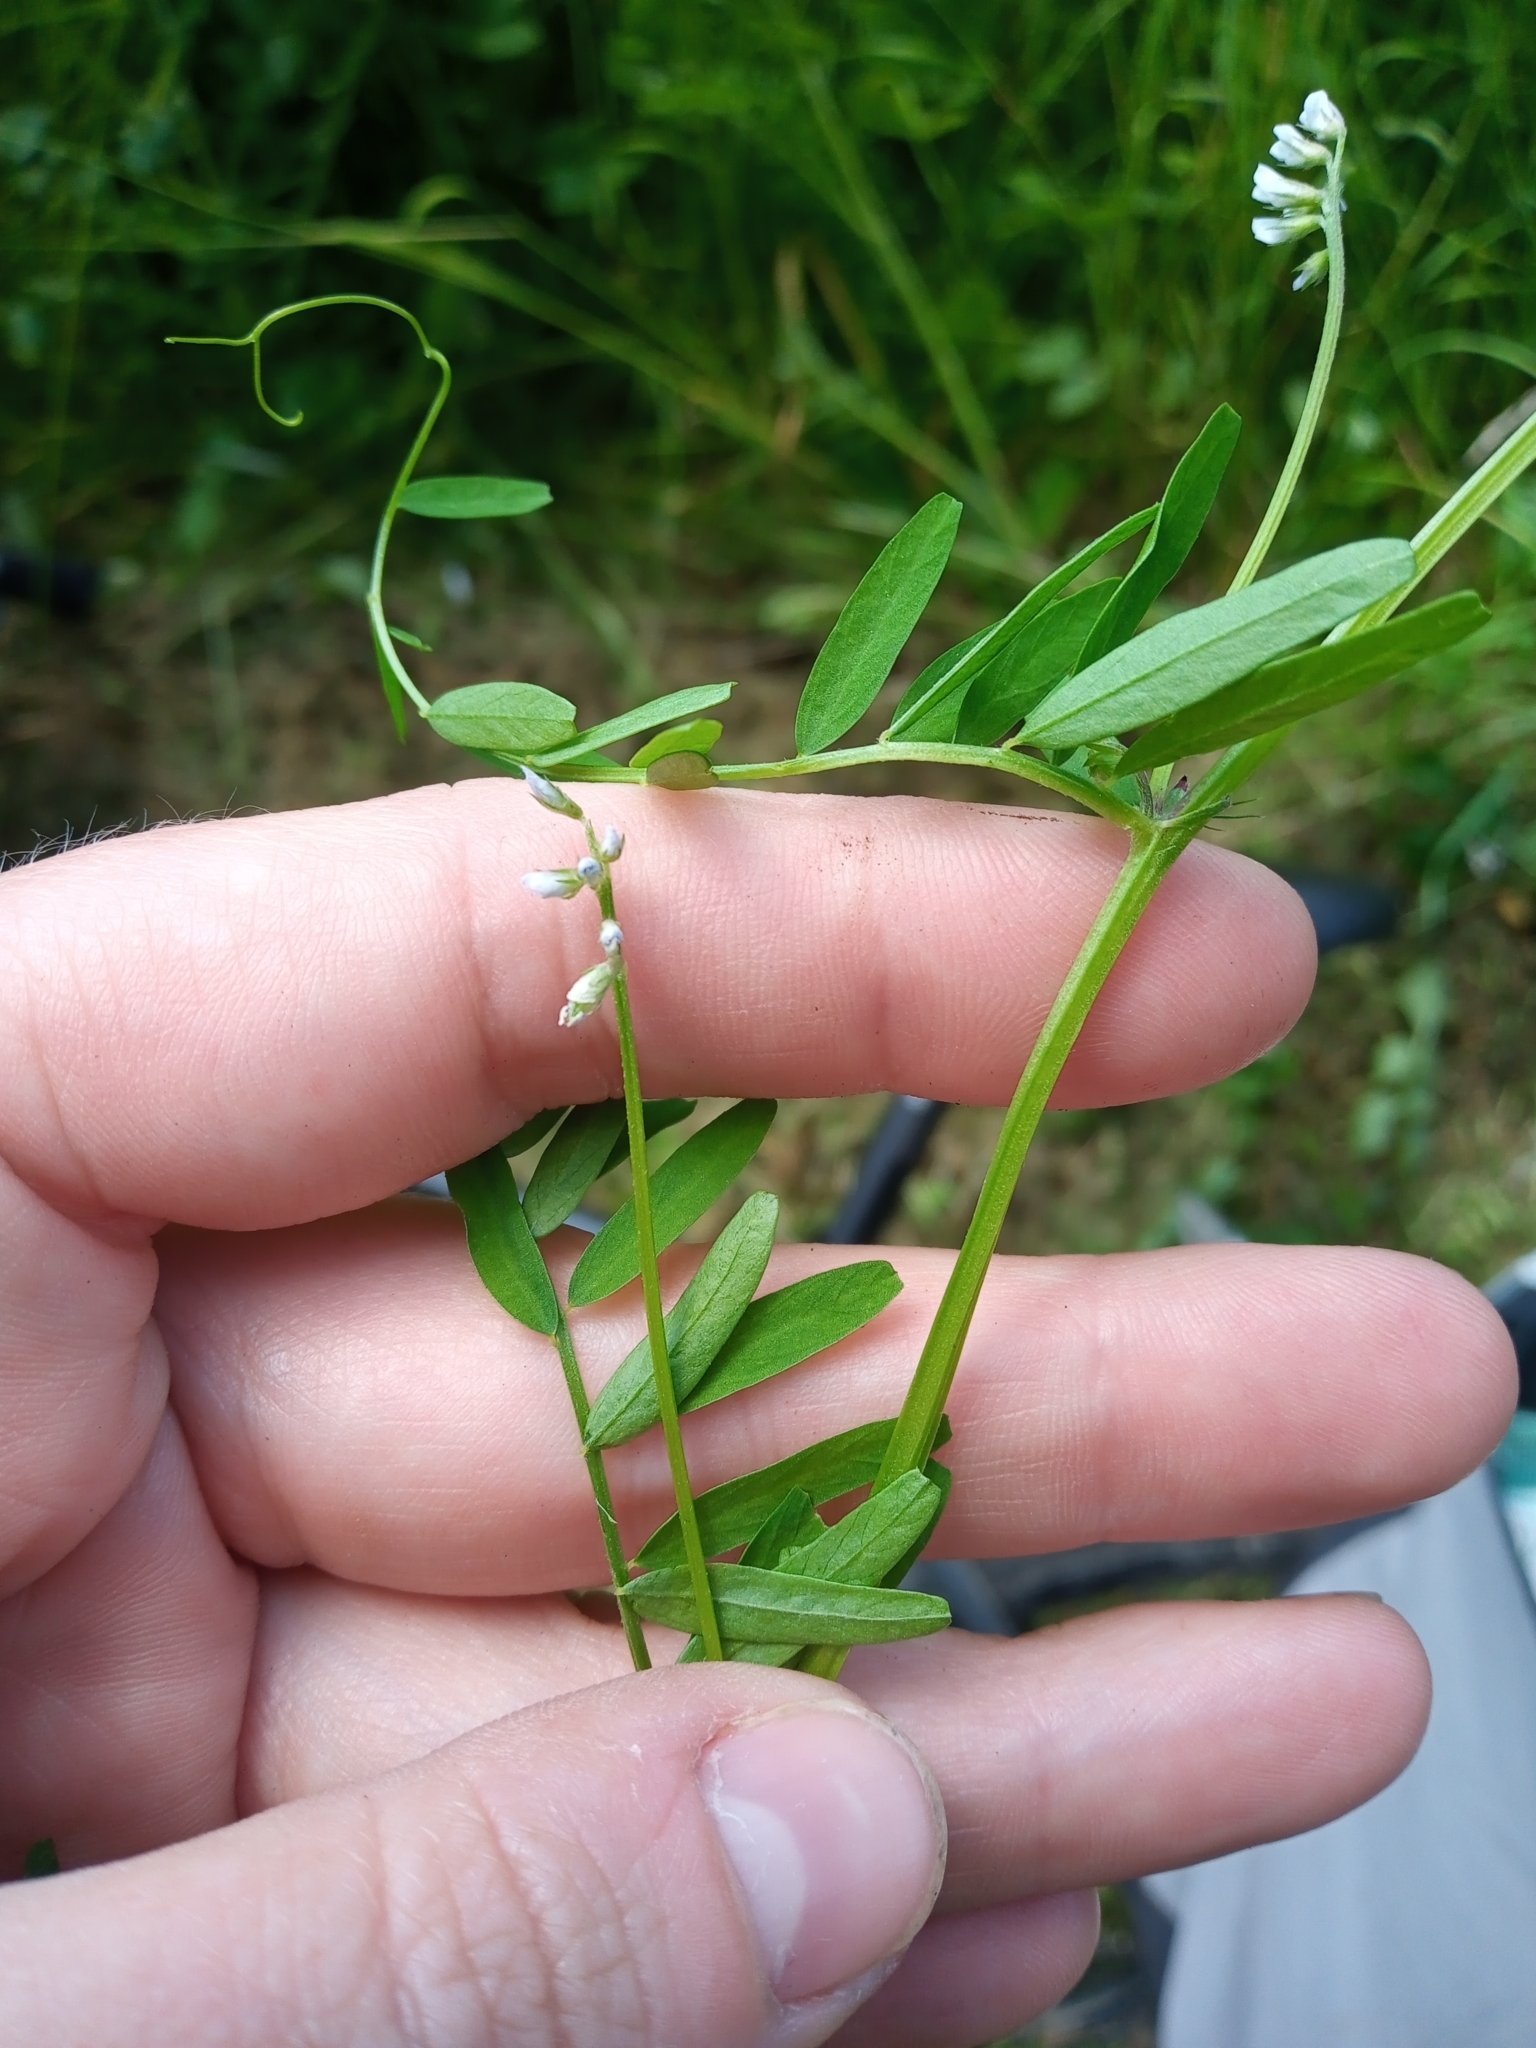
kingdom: Plantae
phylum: Tracheophyta
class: Magnoliopsida
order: Fabales
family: Fabaceae
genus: Vicia
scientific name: Vicia hirsuta
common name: Tiny vetch
